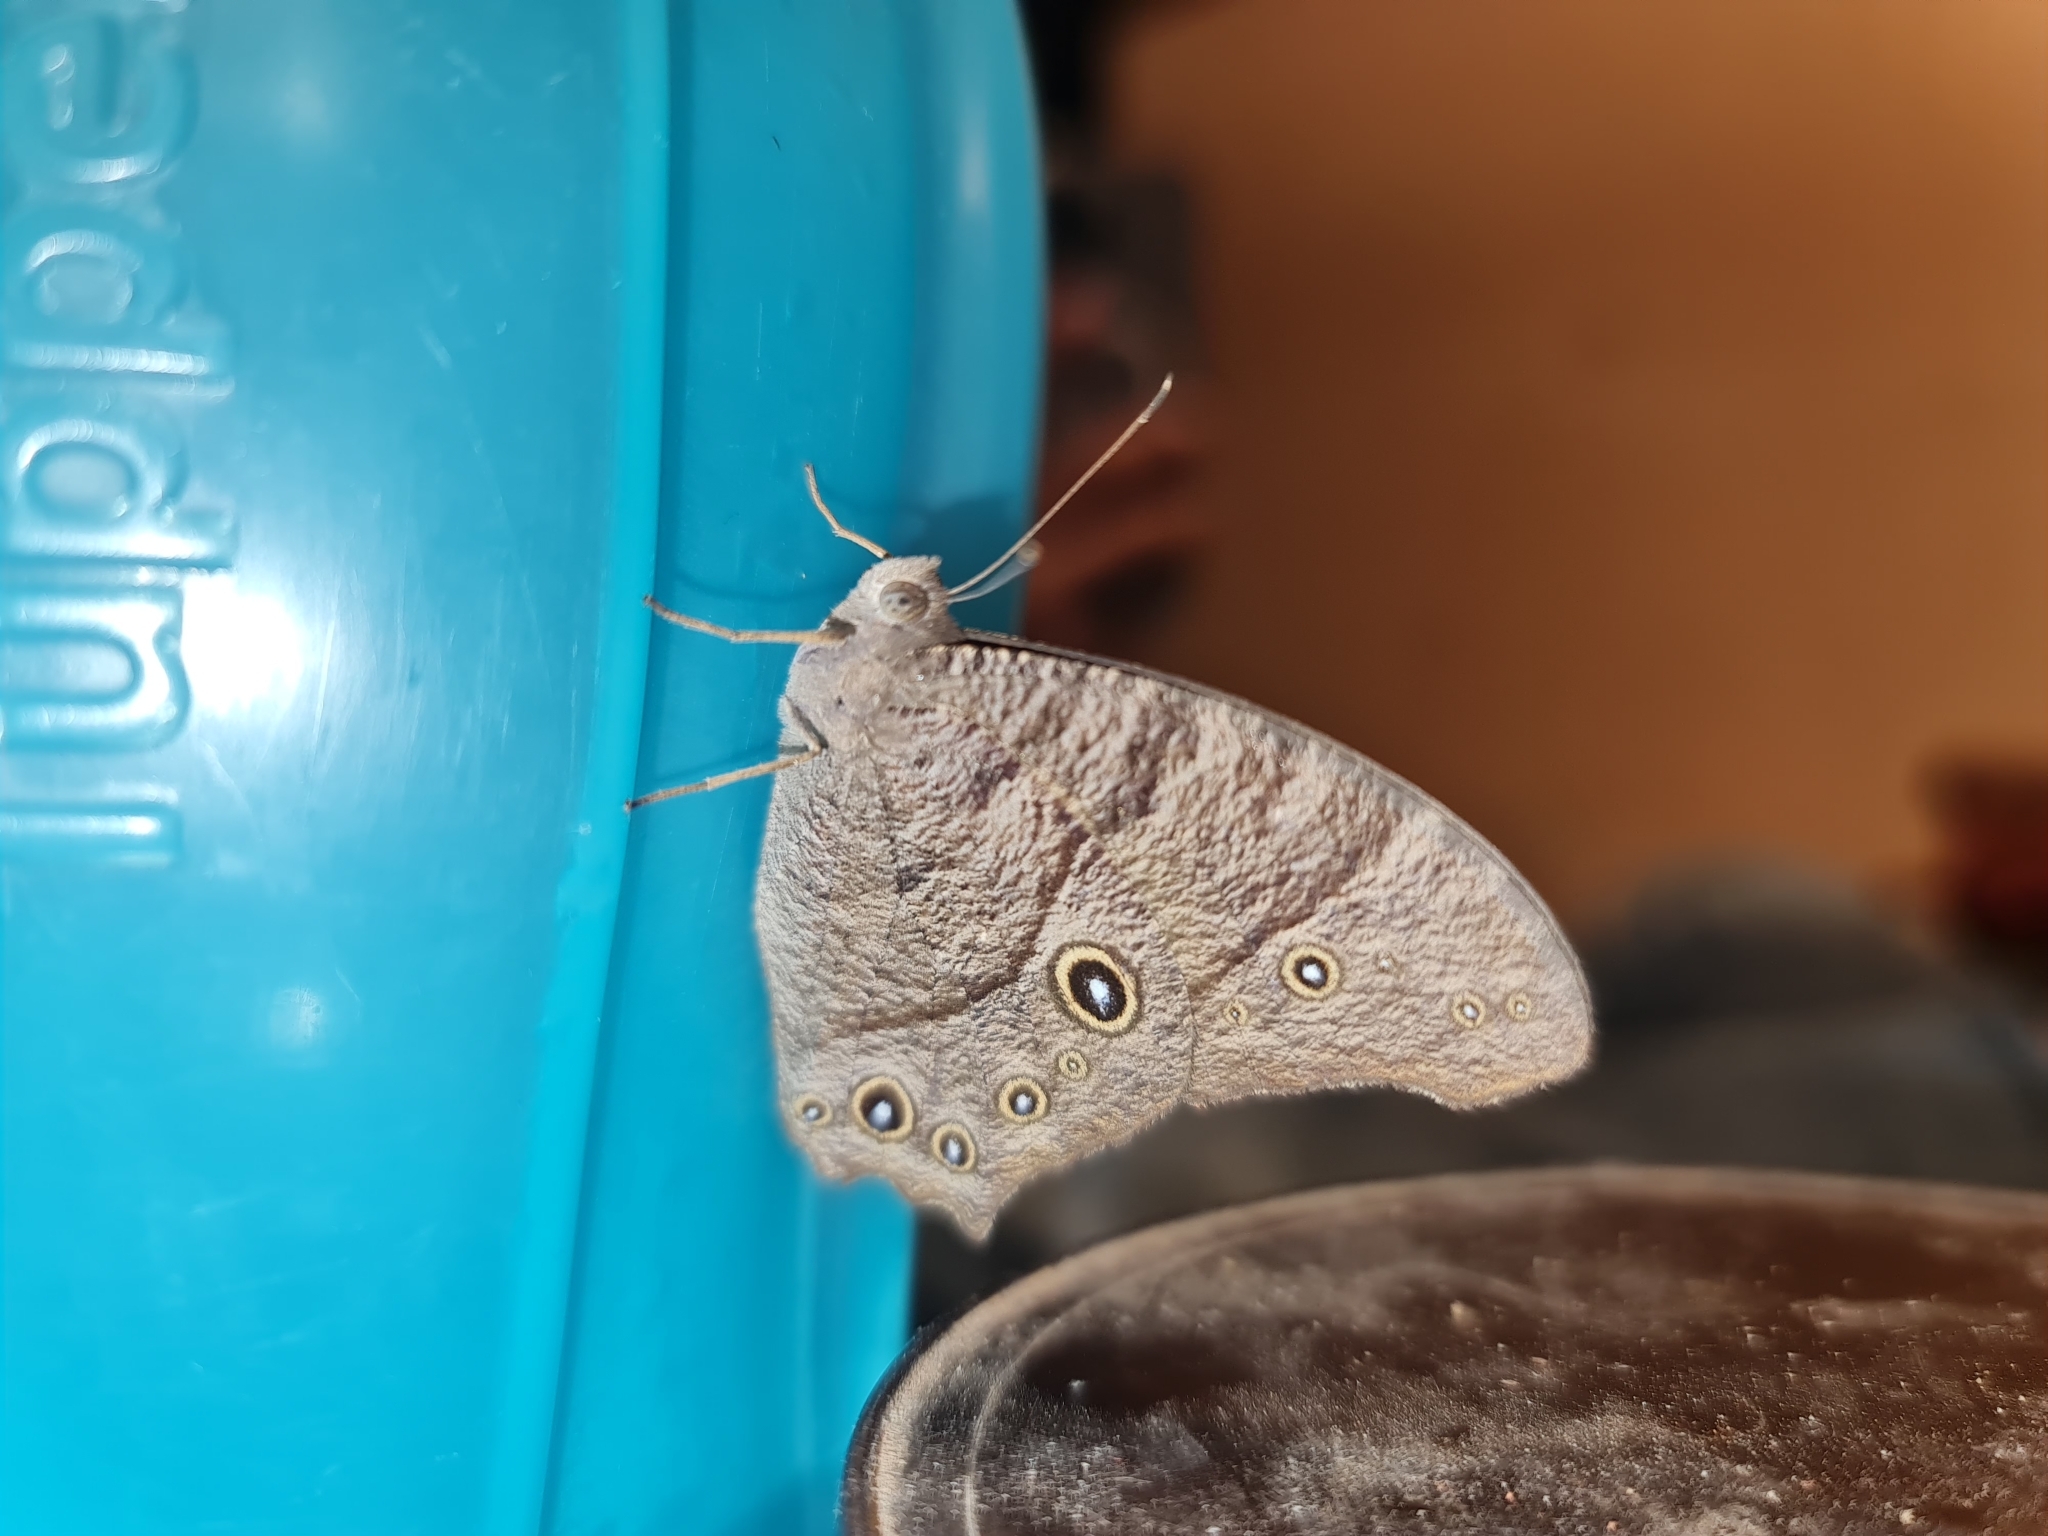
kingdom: Animalia
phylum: Arthropoda
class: Insecta
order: Lepidoptera
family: Nymphalidae
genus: Melanitis
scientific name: Melanitis leda
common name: Twilight brown
